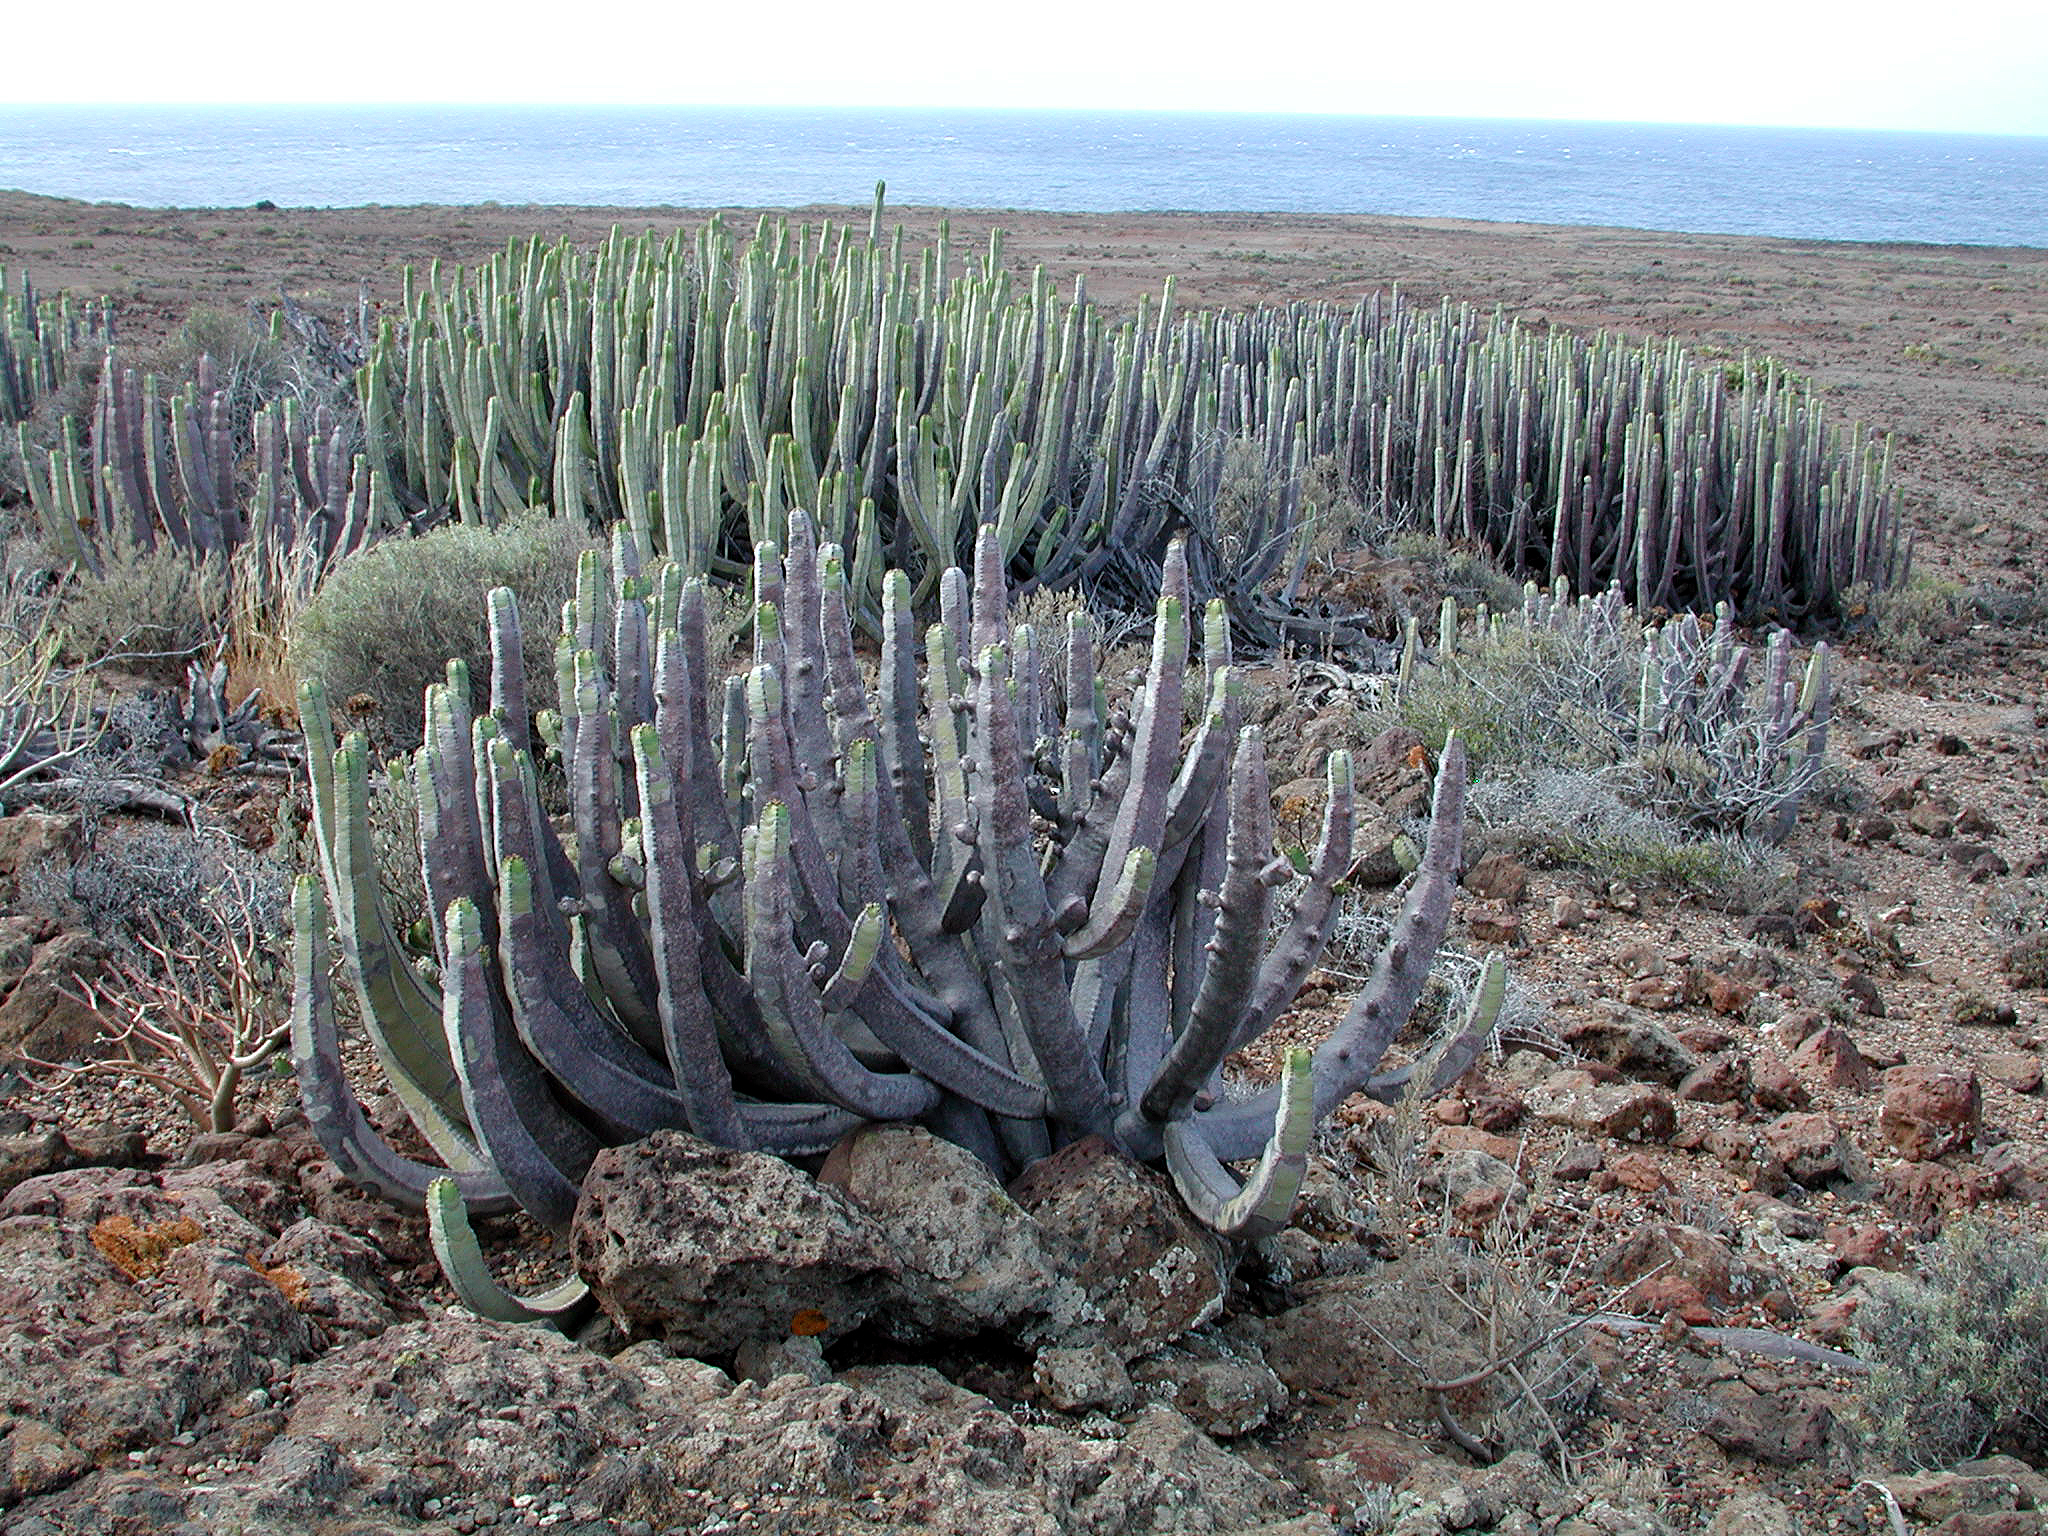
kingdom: Plantae
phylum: Tracheophyta
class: Magnoliopsida
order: Malpighiales
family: Euphorbiaceae
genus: Euphorbia
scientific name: Euphorbia canariensis
